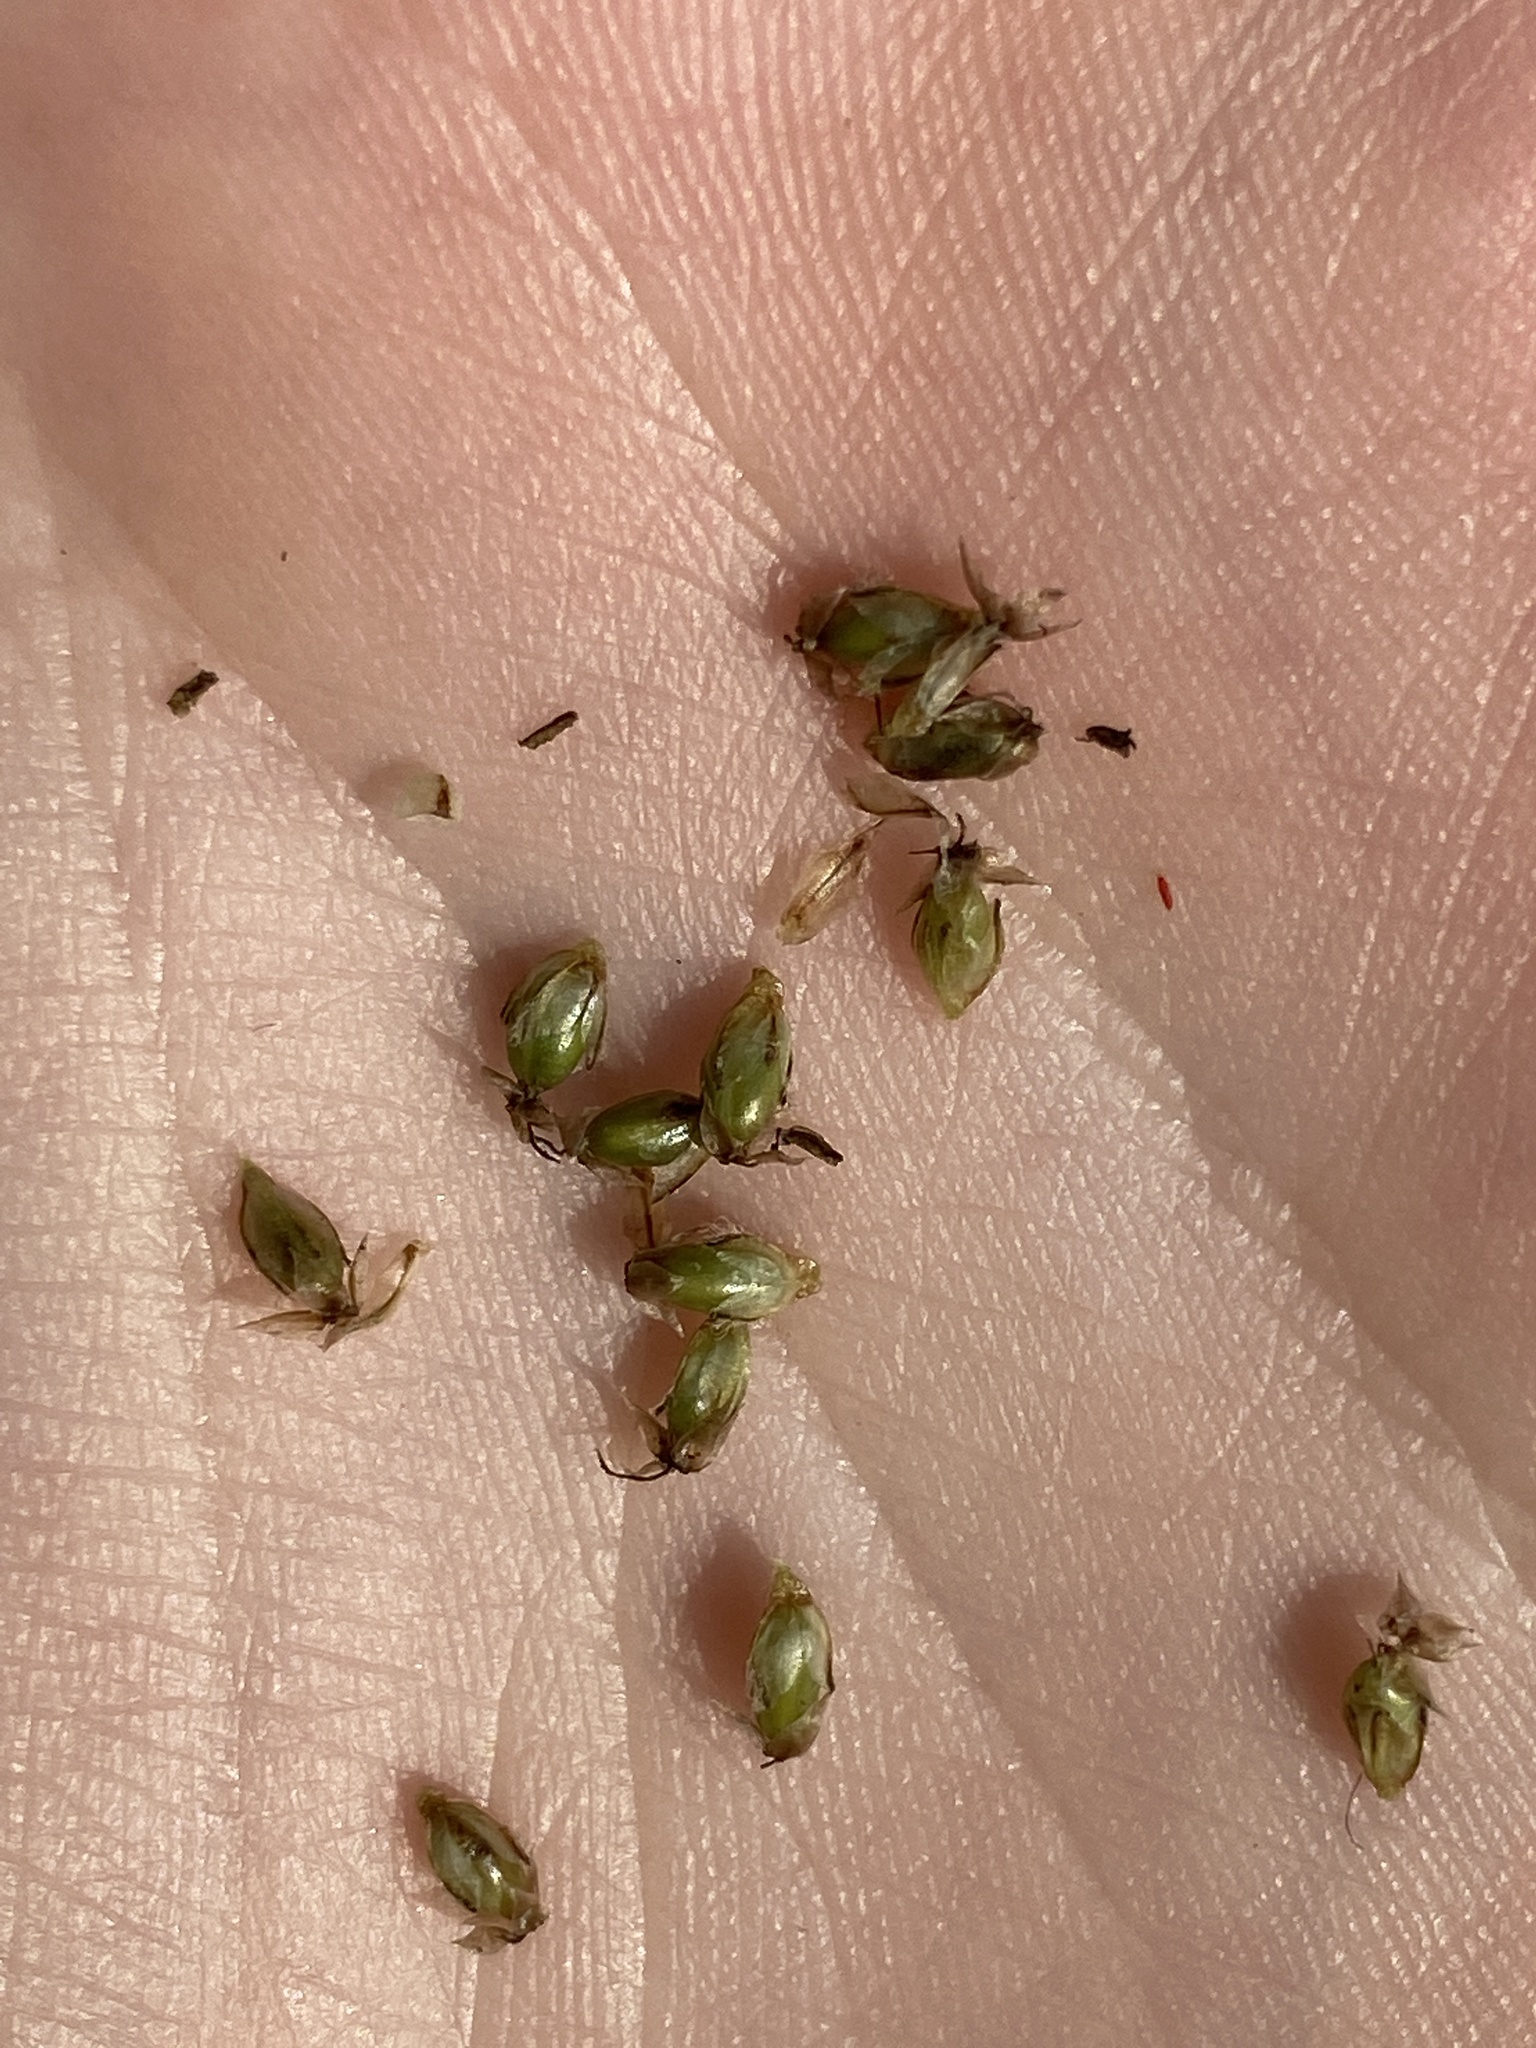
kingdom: Plantae
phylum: Tracheophyta
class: Magnoliopsida
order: Lamiales
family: Plantaginaceae
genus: Plantago
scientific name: Plantago lanceolata
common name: Ribwort plantain
